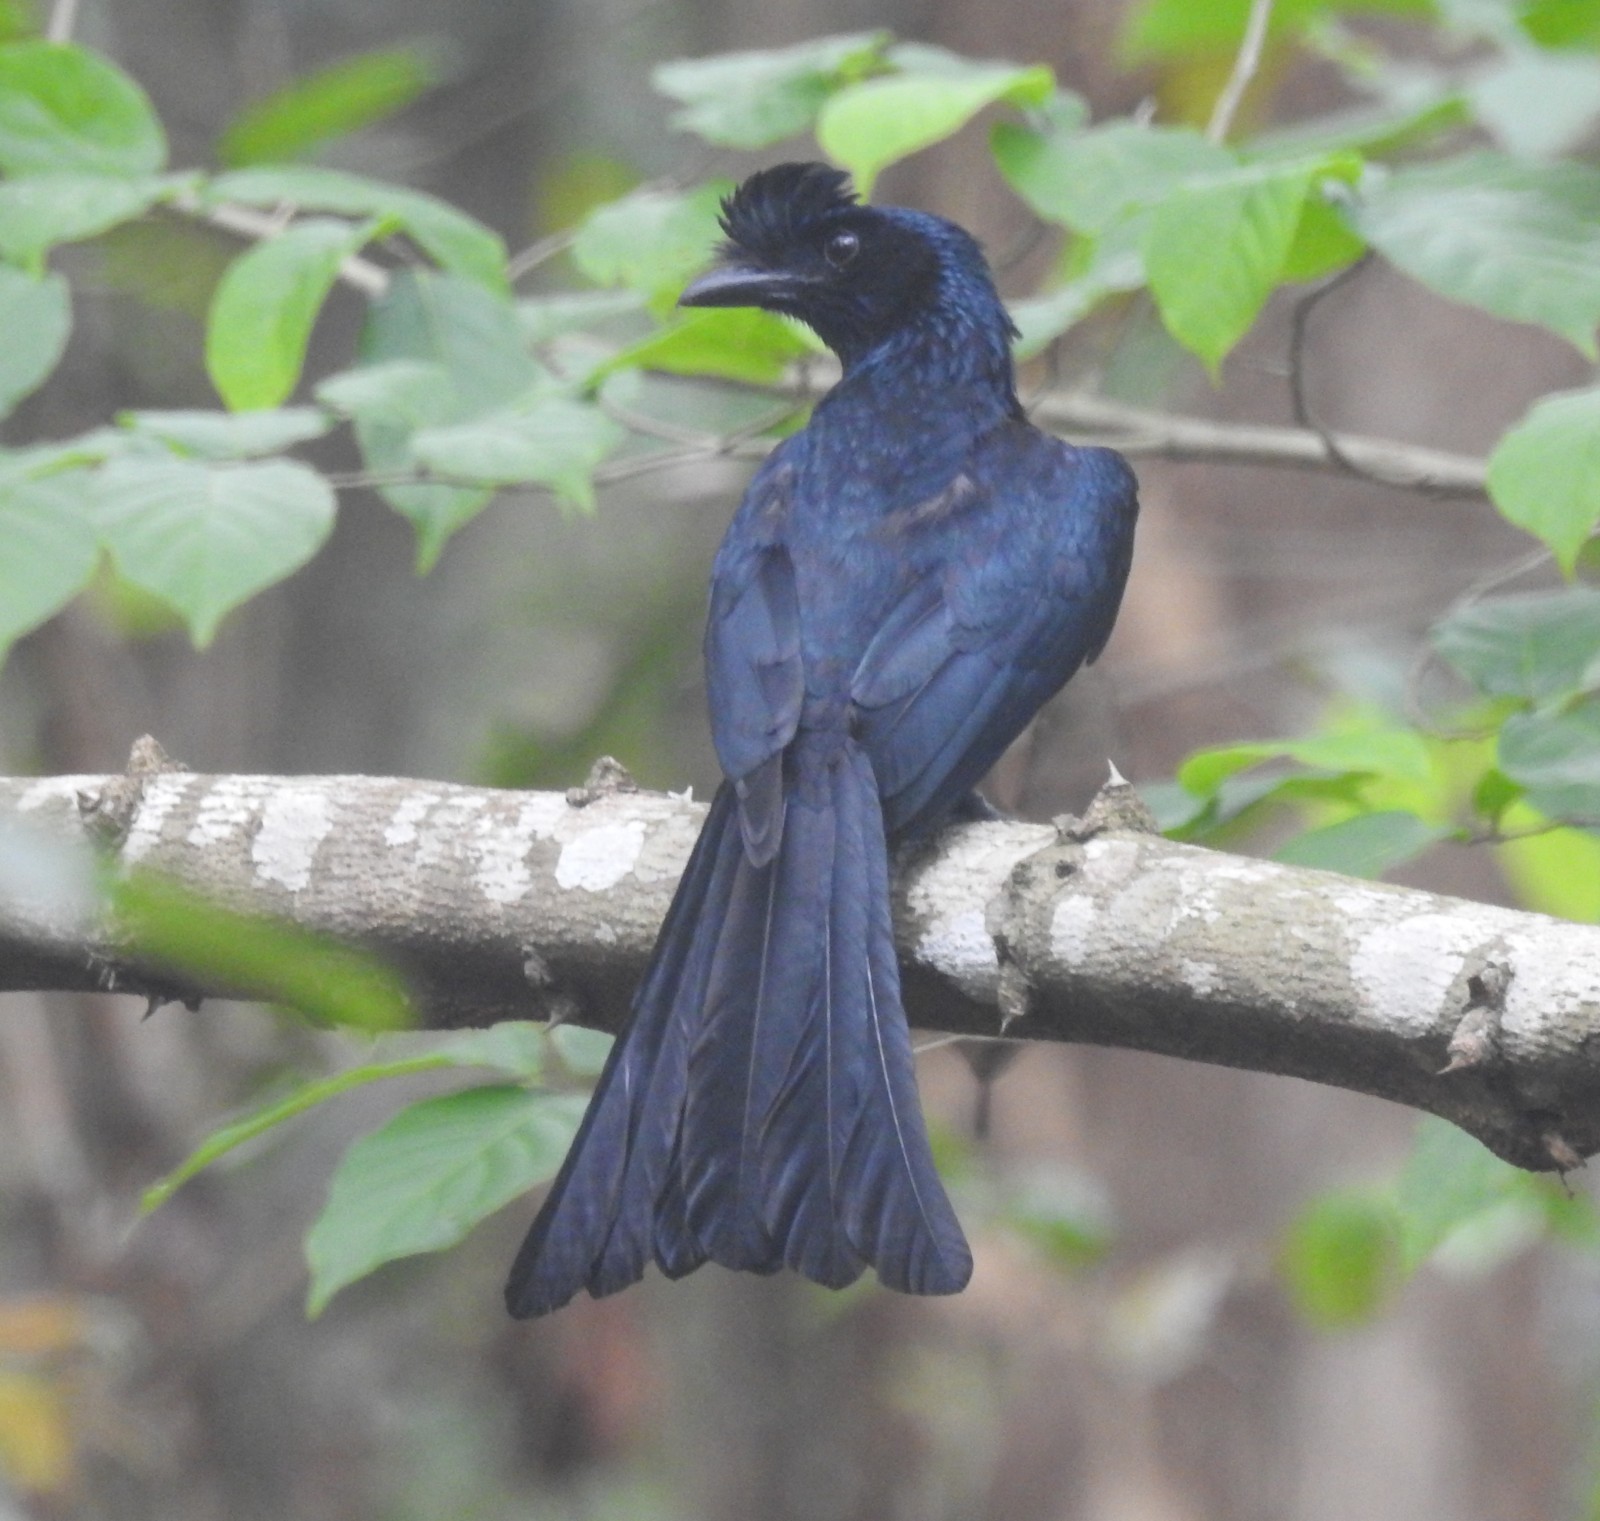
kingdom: Animalia
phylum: Chordata
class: Aves
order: Passeriformes
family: Dicruridae
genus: Dicrurus
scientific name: Dicrurus paradiseus
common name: Greater racket-tailed drongo
